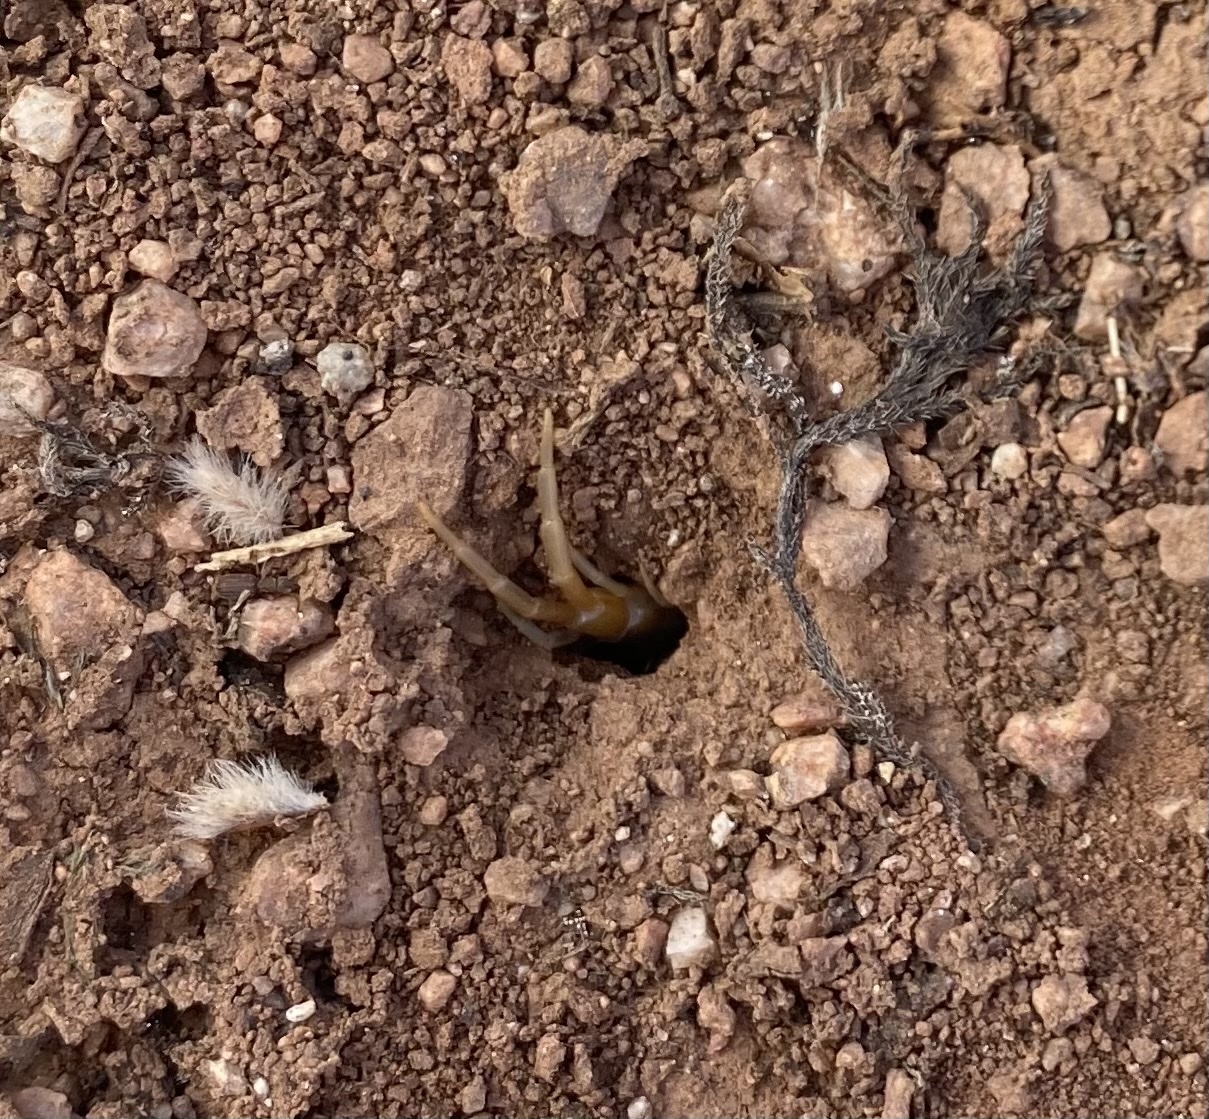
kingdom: Animalia
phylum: Arthropoda
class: Chilopoda
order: Scolopendromorpha
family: Scolopendridae
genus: Scolopendra
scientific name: Scolopendra polymorpha
